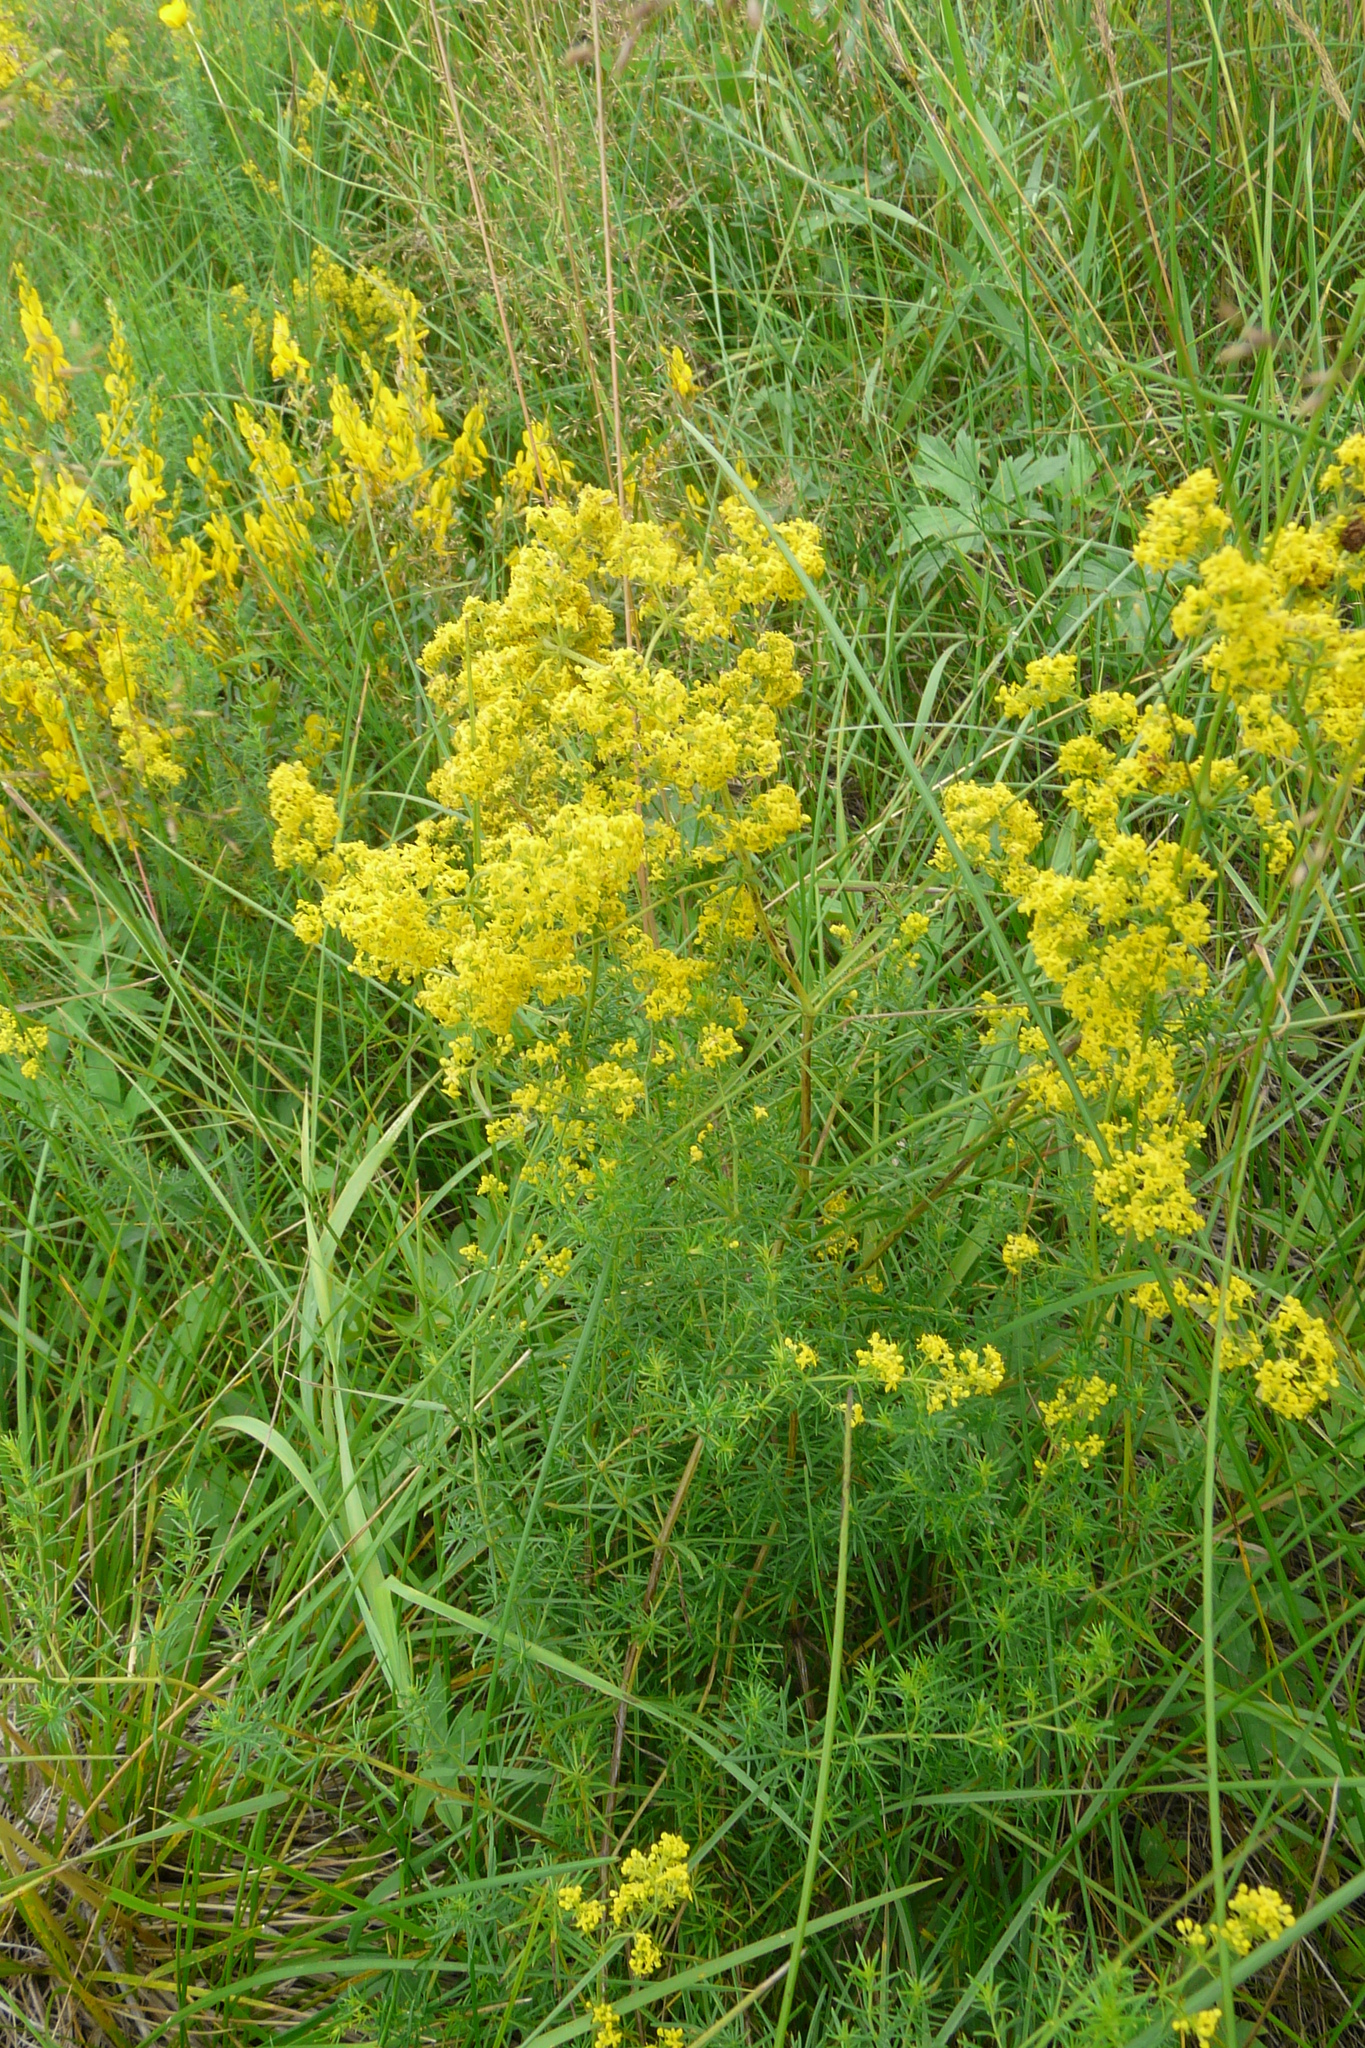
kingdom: Plantae
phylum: Tracheophyta
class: Magnoliopsida
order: Gentianales
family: Rubiaceae
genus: Galium
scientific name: Galium verum
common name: Lady's bedstraw
